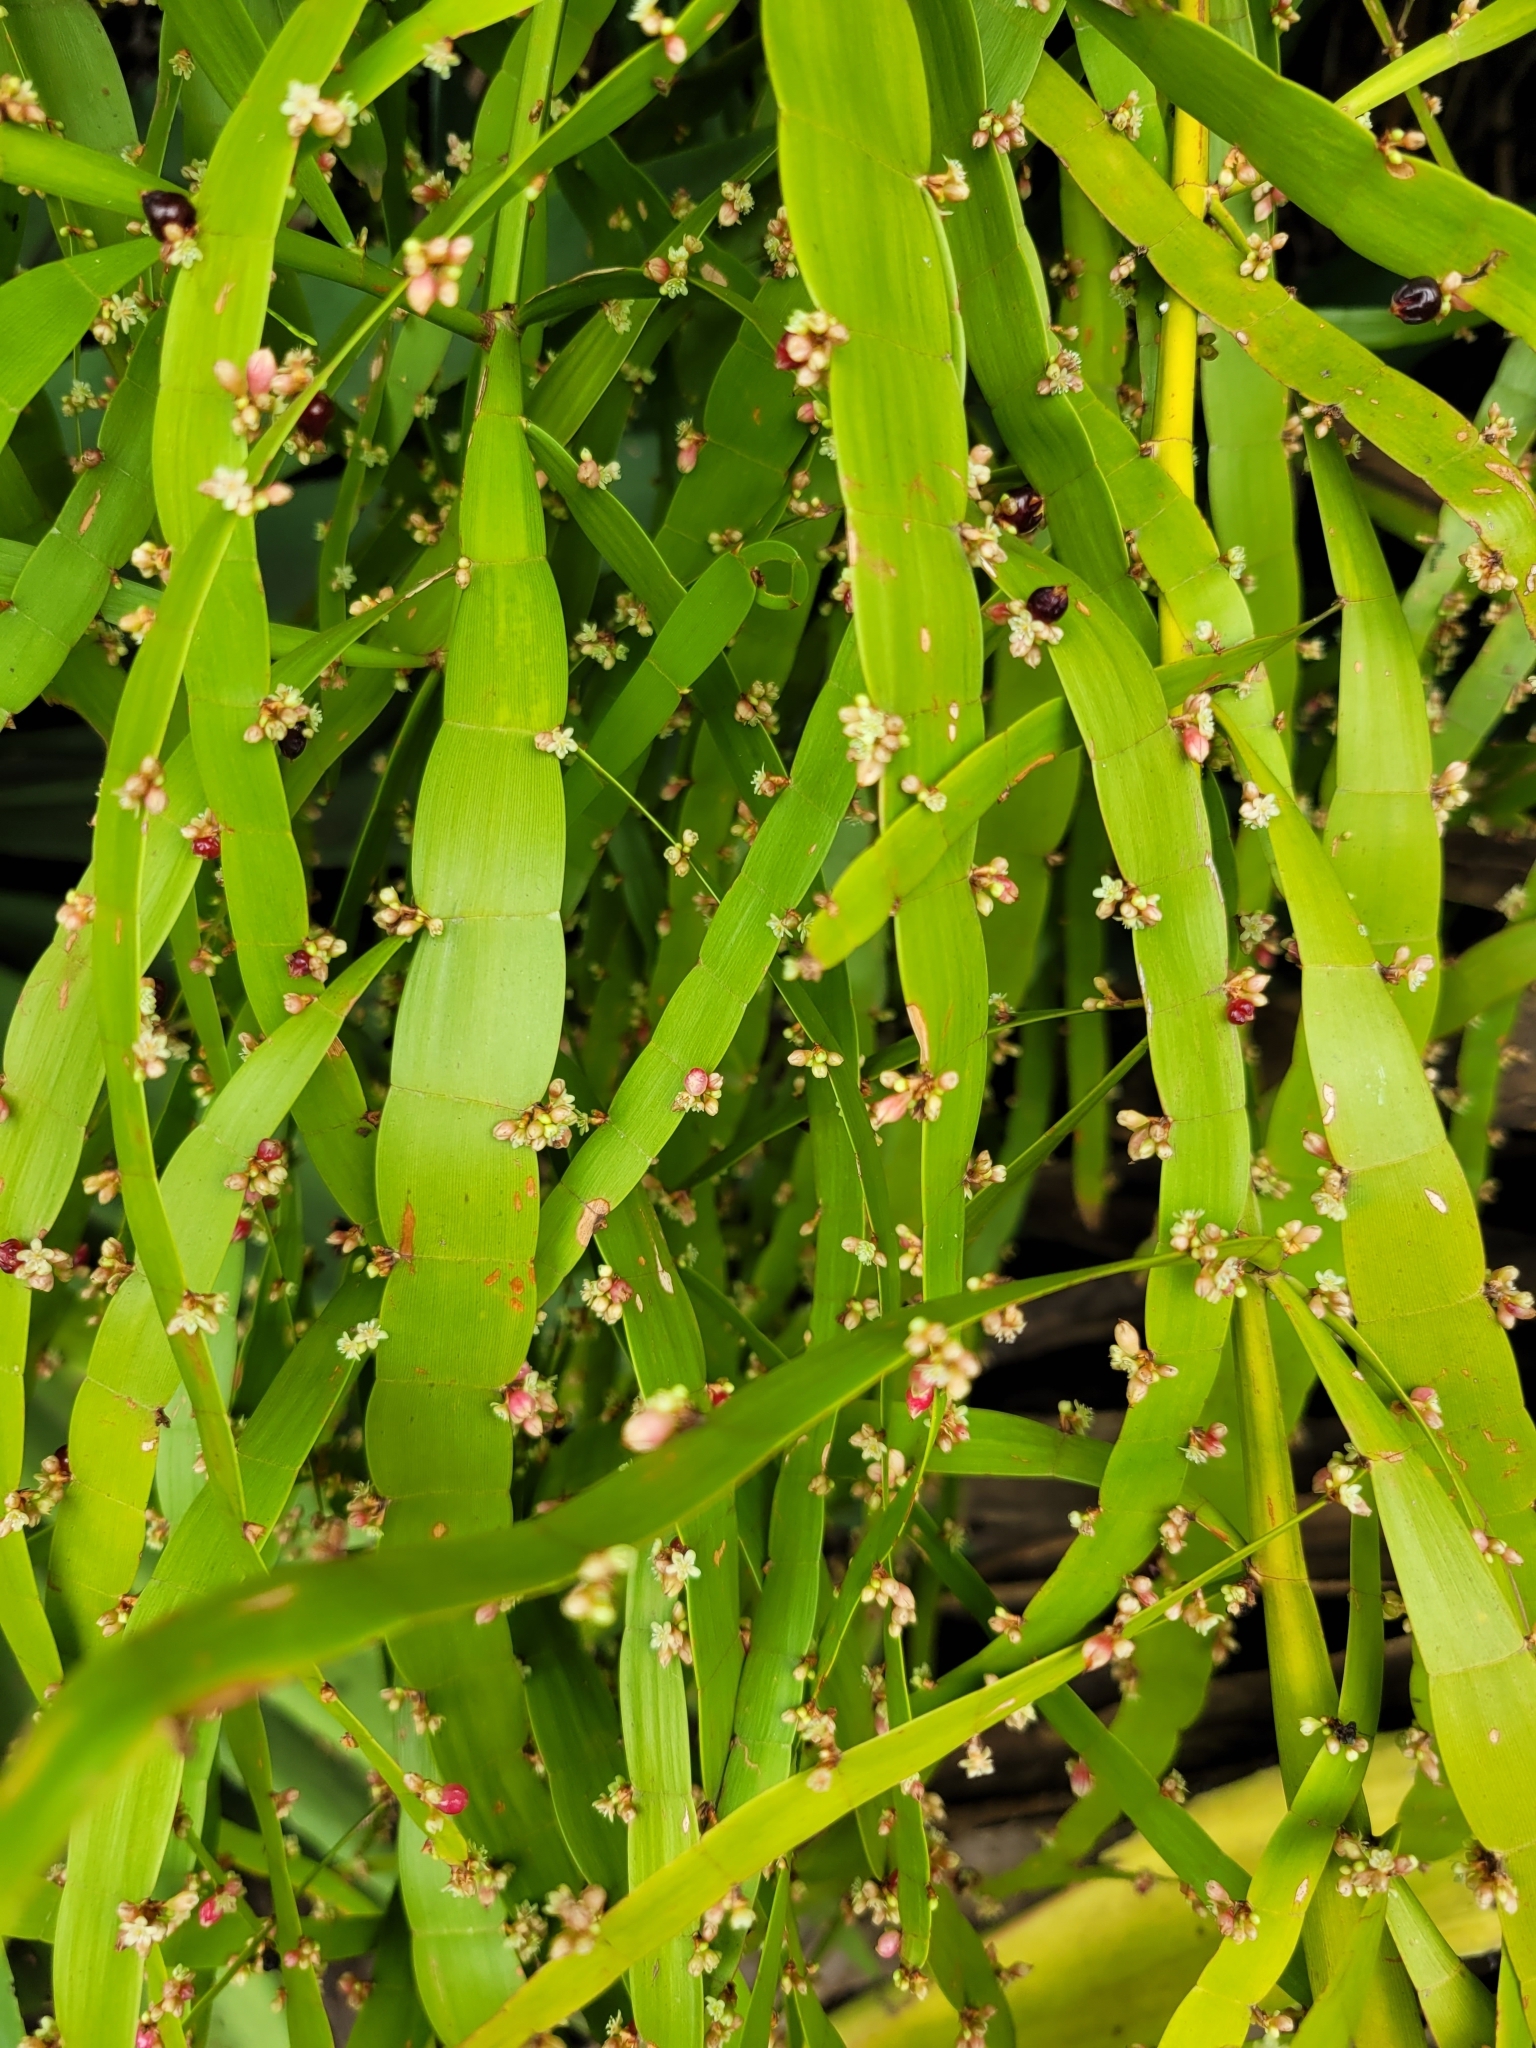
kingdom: Plantae
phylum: Tracheophyta
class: Magnoliopsida
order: Caryophyllales
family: Polygonaceae
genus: Muehlenbeckia
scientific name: Muehlenbeckia platyclada
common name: Tapewormplant
